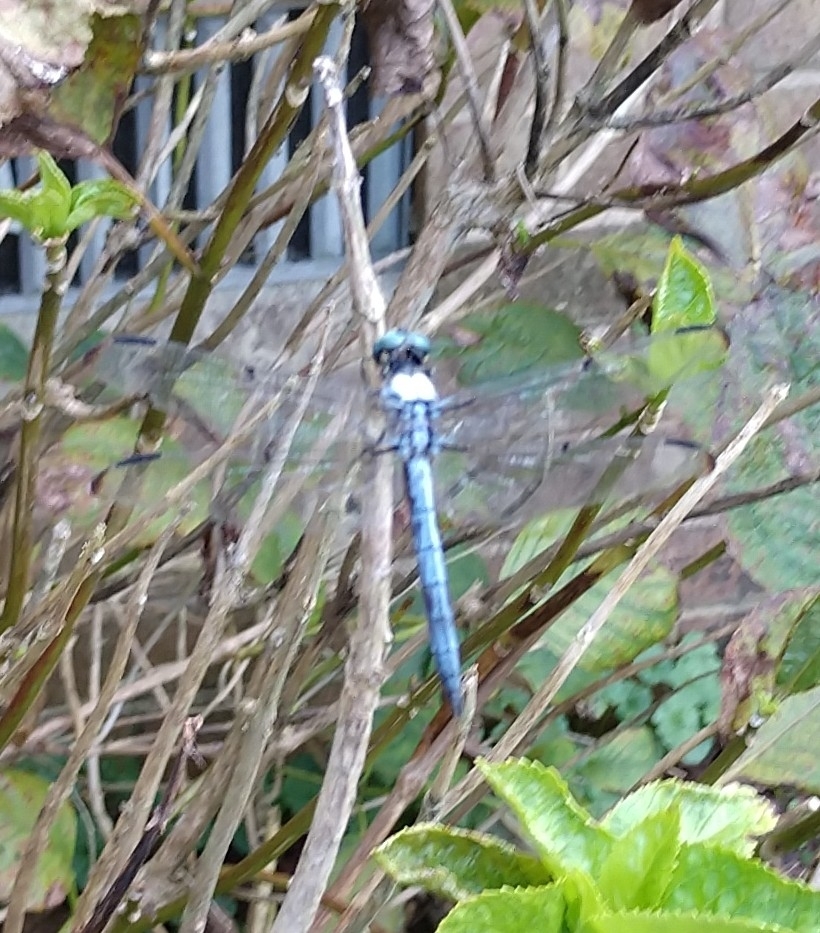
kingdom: Animalia
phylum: Arthropoda
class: Insecta
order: Odonata
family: Libellulidae
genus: Libellula
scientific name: Libellula vibrans
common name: Great blue skimmer
